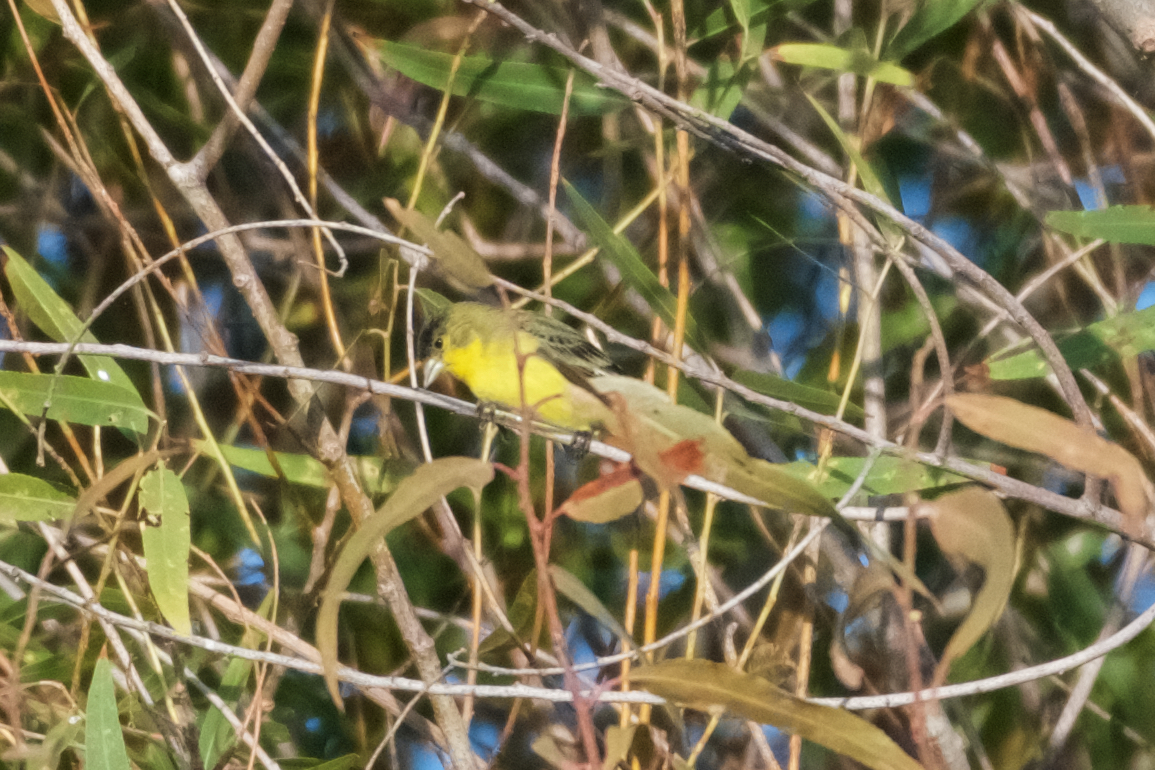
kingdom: Animalia
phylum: Chordata
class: Aves
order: Passeriformes
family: Fringillidae
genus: Spinus
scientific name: Spinus psaltria
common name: Lesser goldfinch
